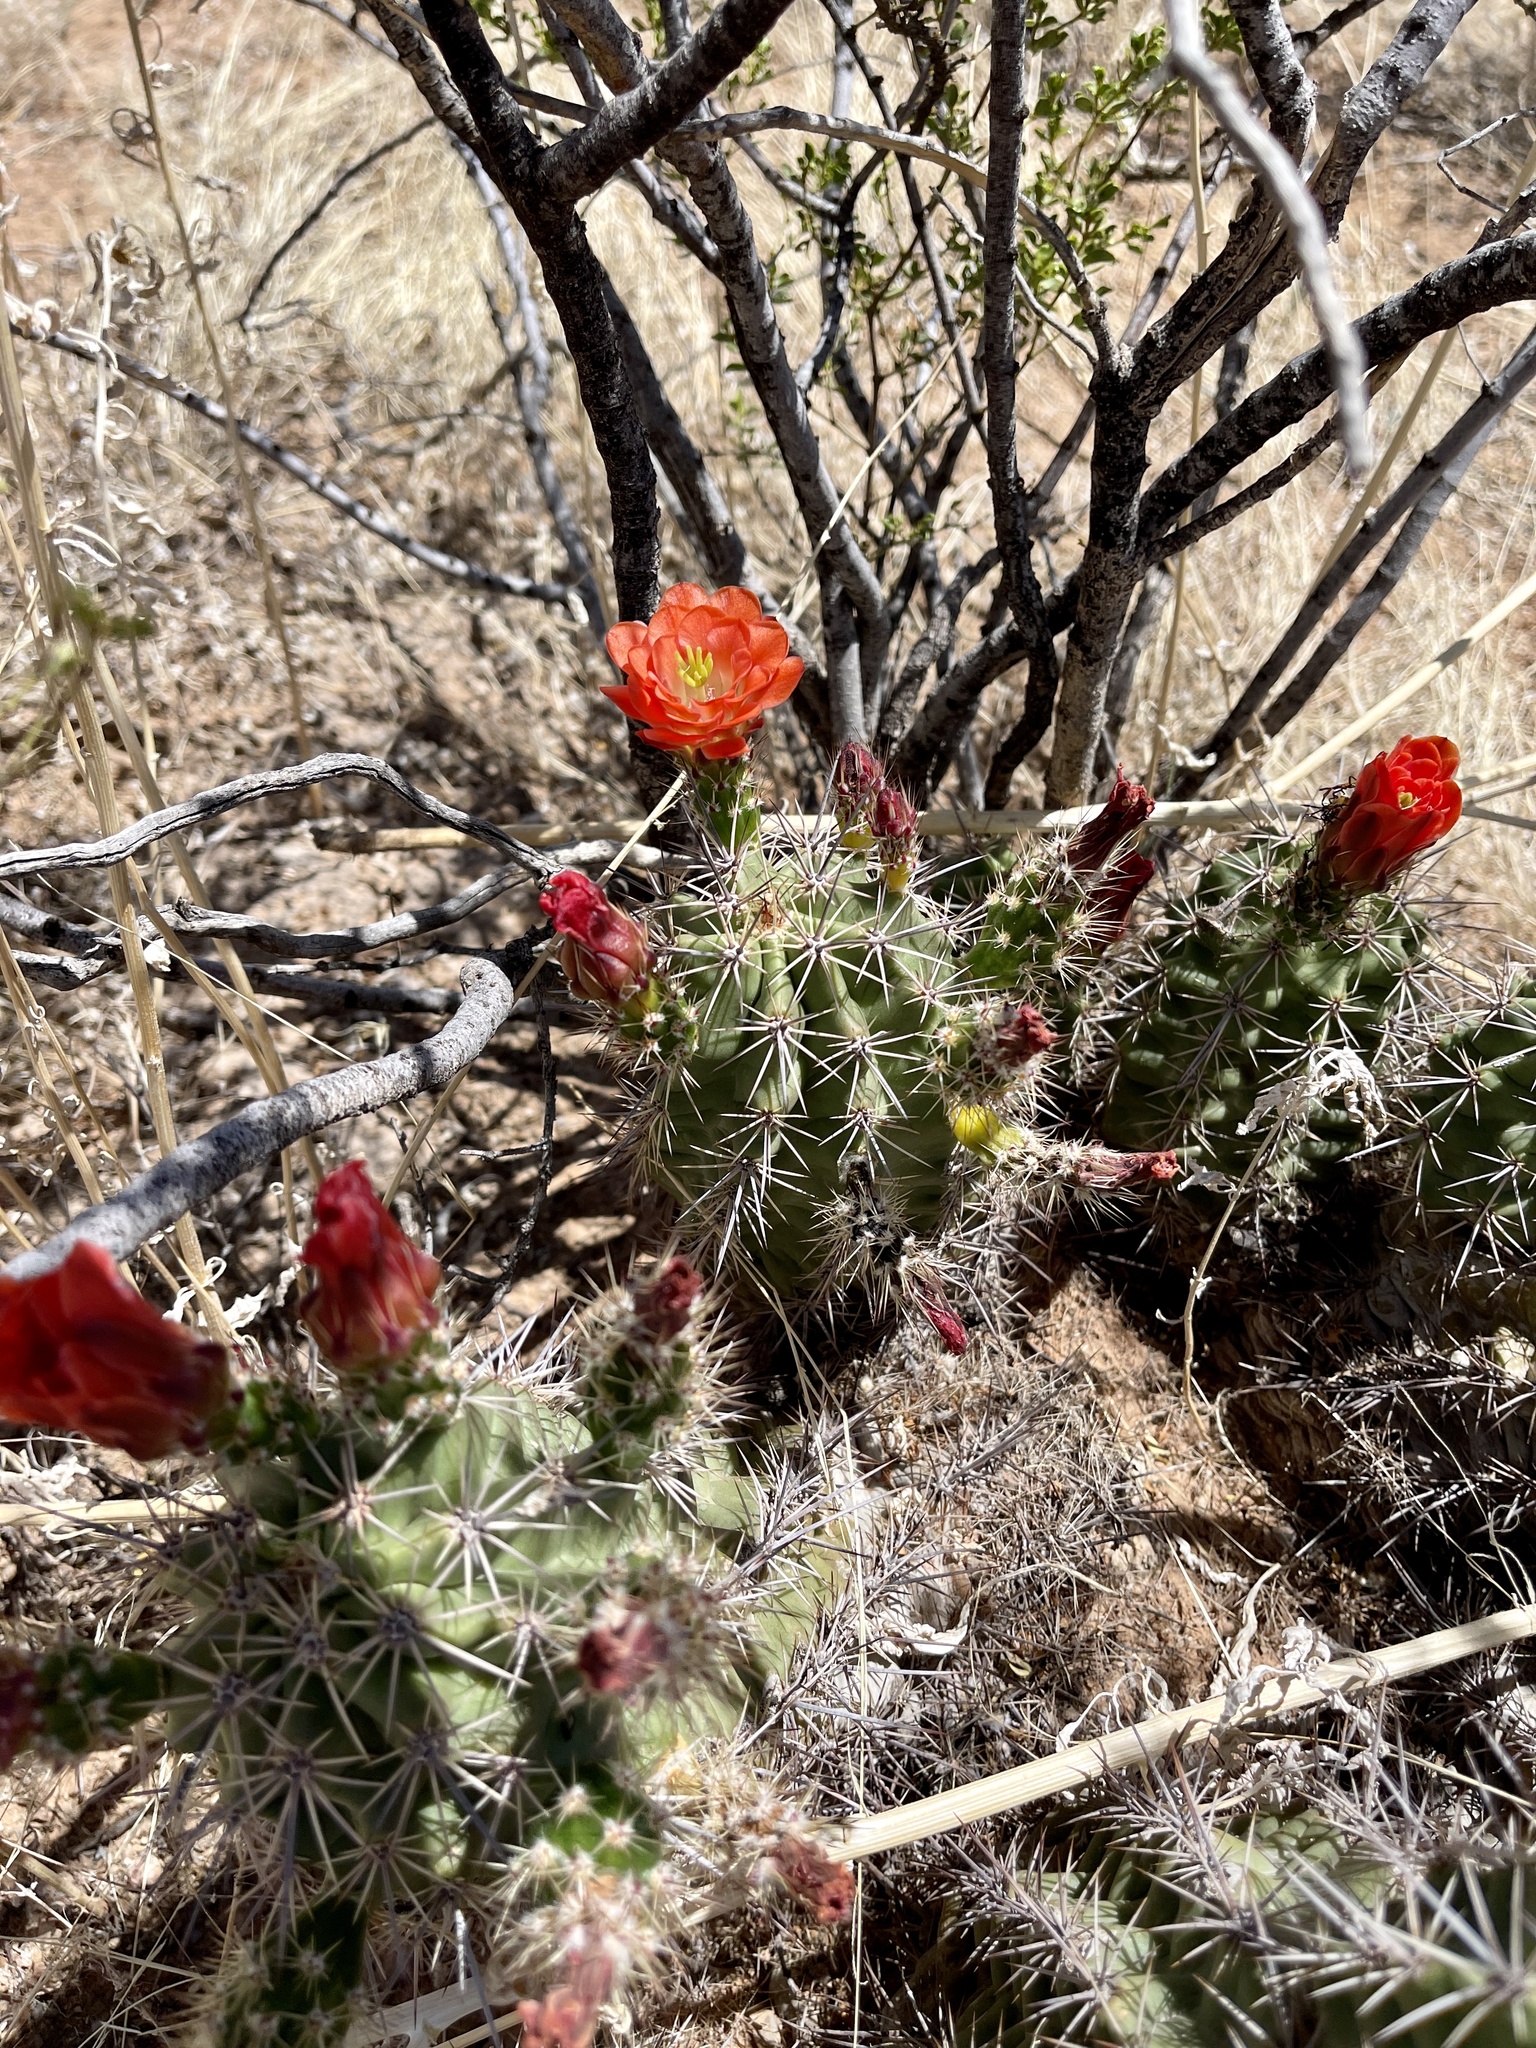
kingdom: Plantae
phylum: Tracheophyta
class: Magnoliopsida
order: Caryophyllales
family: Cactaceae
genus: Echinocereus
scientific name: Echinocereus coccineus
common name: Scarlet hedgehog cactus
